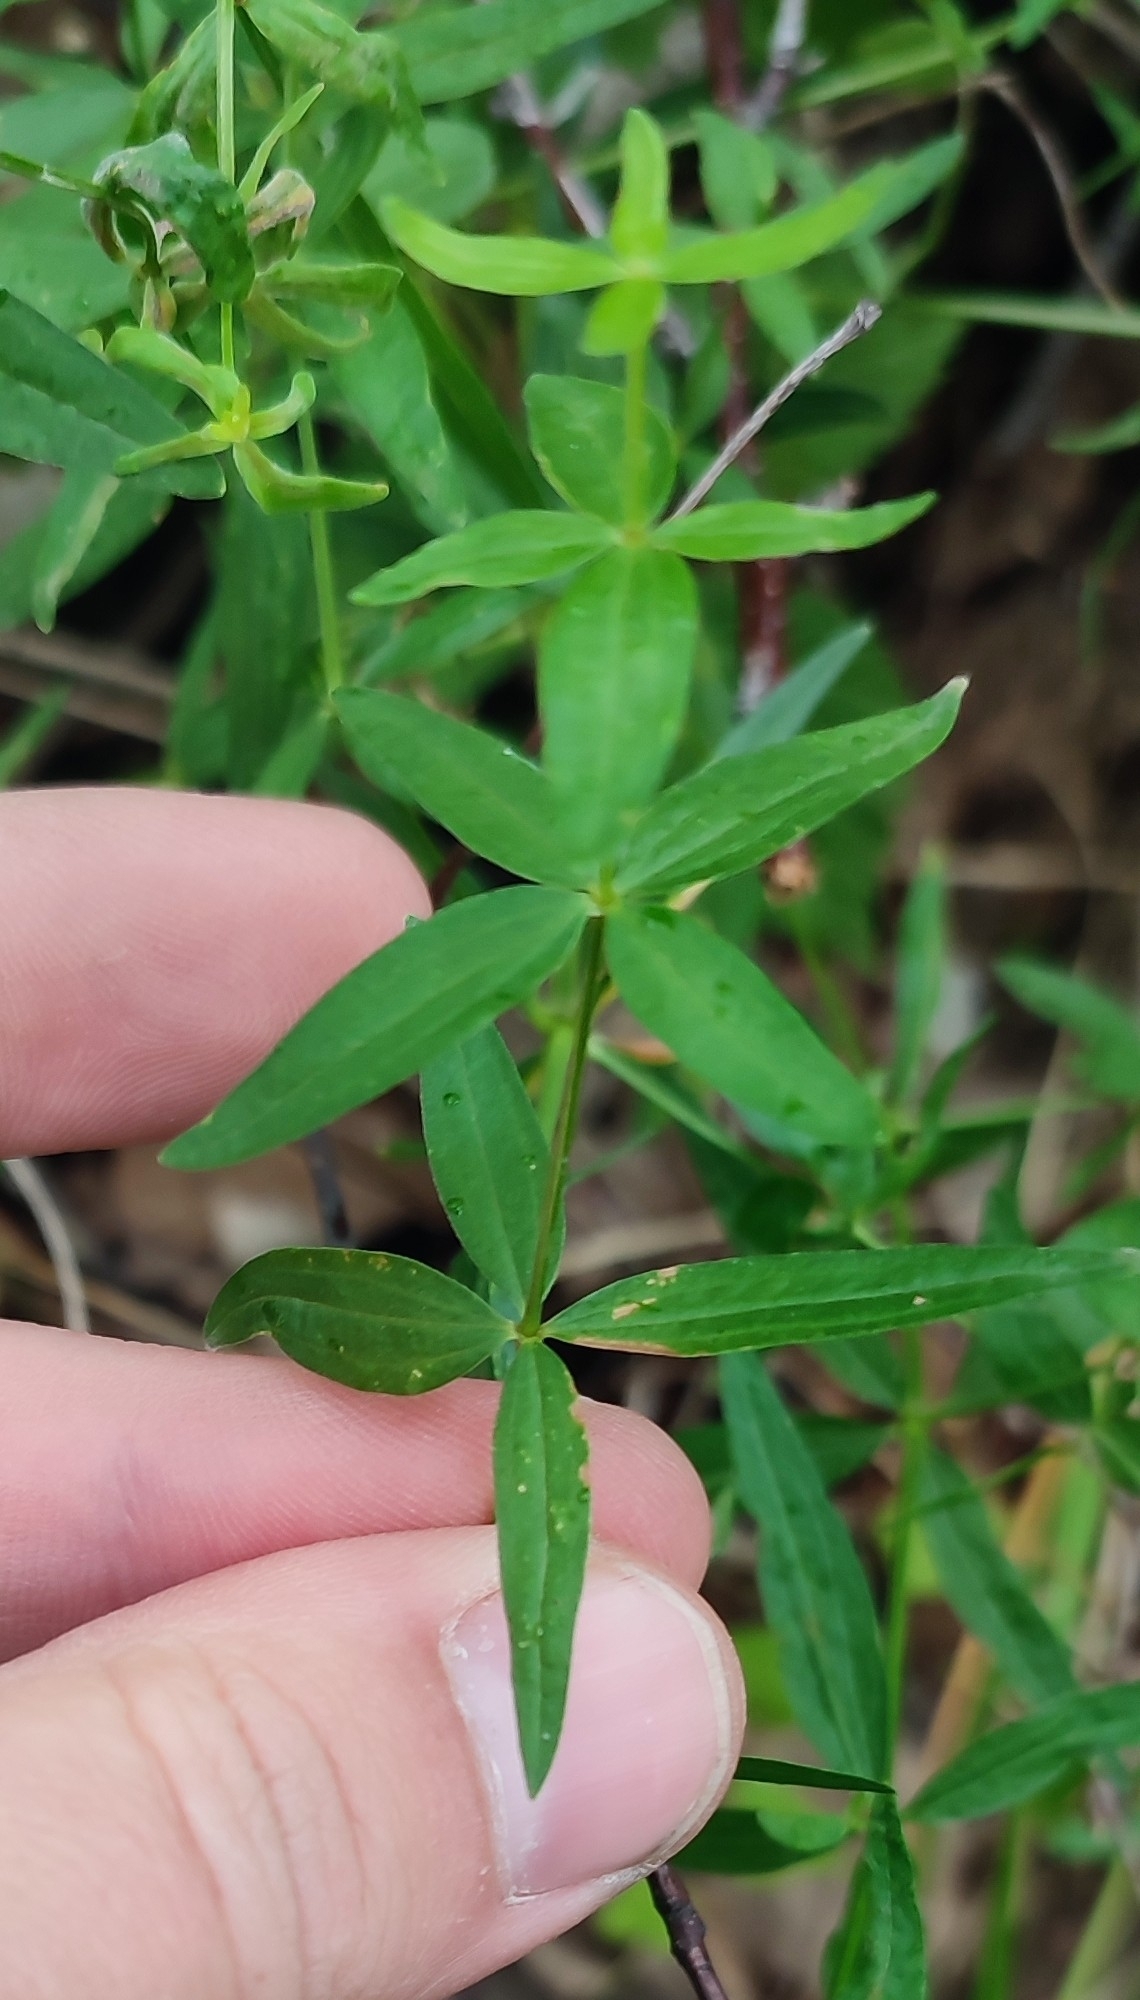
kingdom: Plantae
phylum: Tracheophyta
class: Magnoliopsida
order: Gentianales
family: Rubiaceae
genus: Galium
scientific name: Galium boreale
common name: Northern bedstraw
